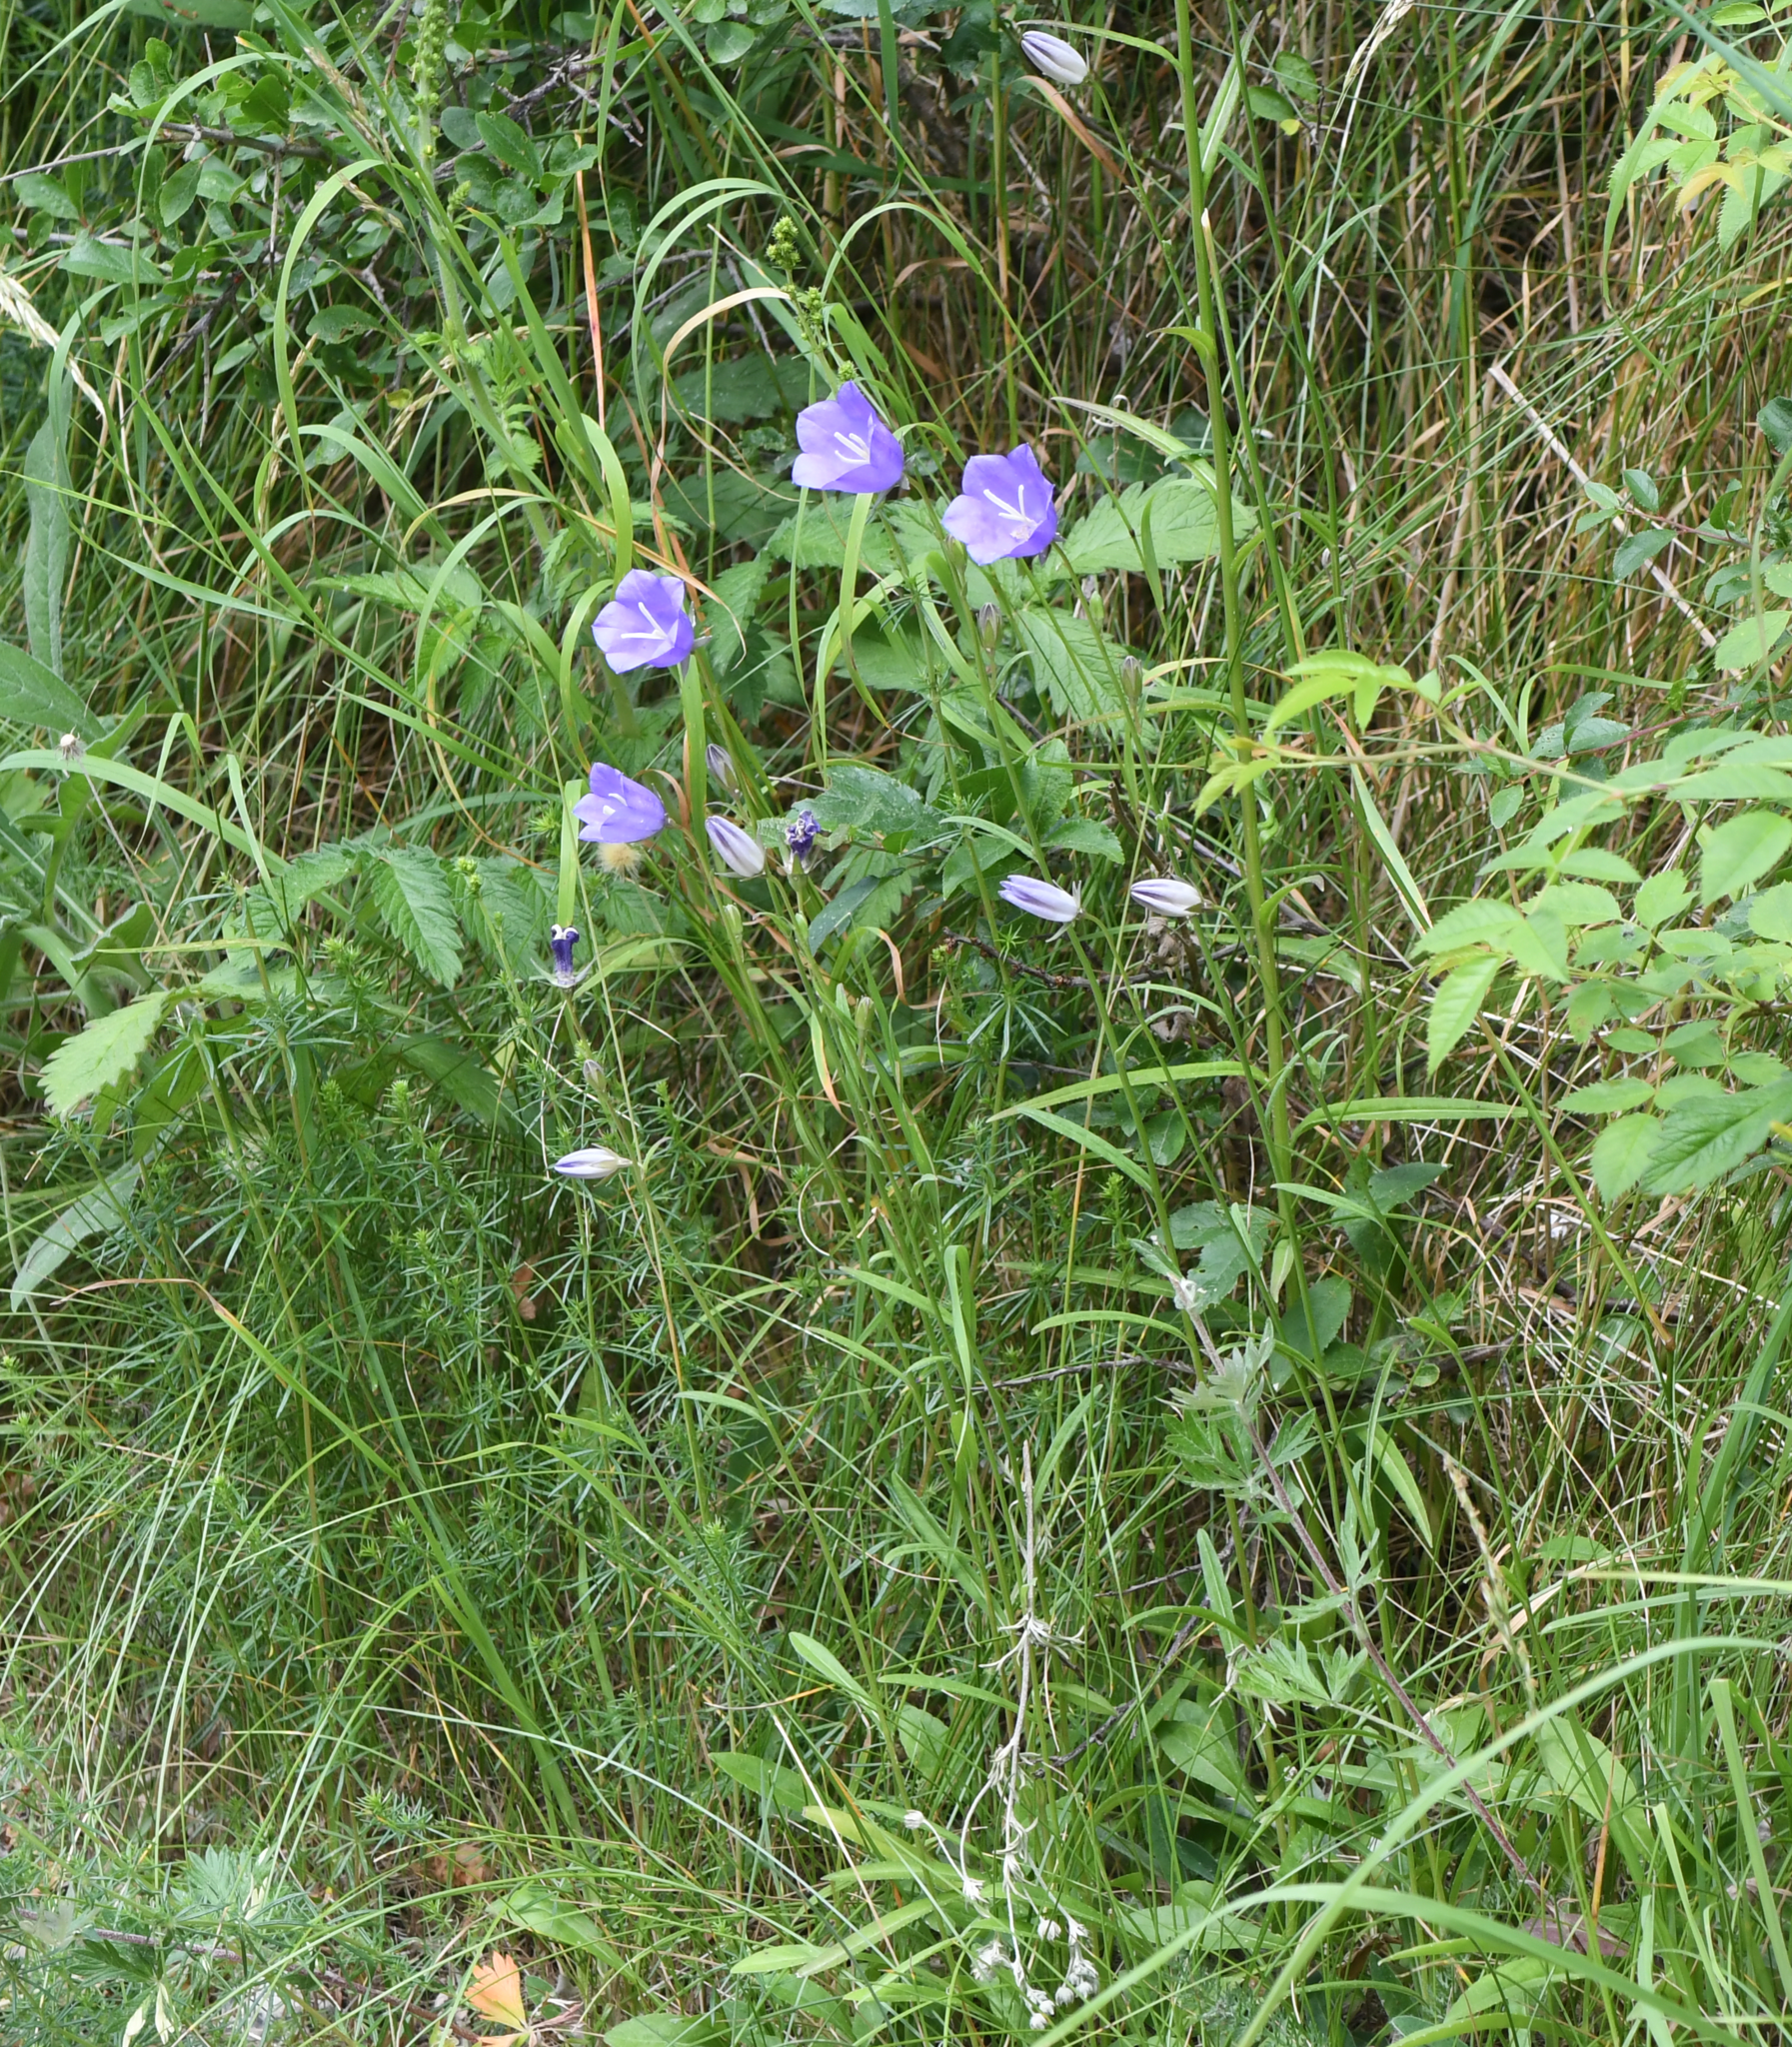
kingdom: Plantae
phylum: Tracheophyta
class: Magnoliopsida
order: Asterales
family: Campanulaceae
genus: Campanula
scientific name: Campanula persicifolia
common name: Peach-leaved bellflower
